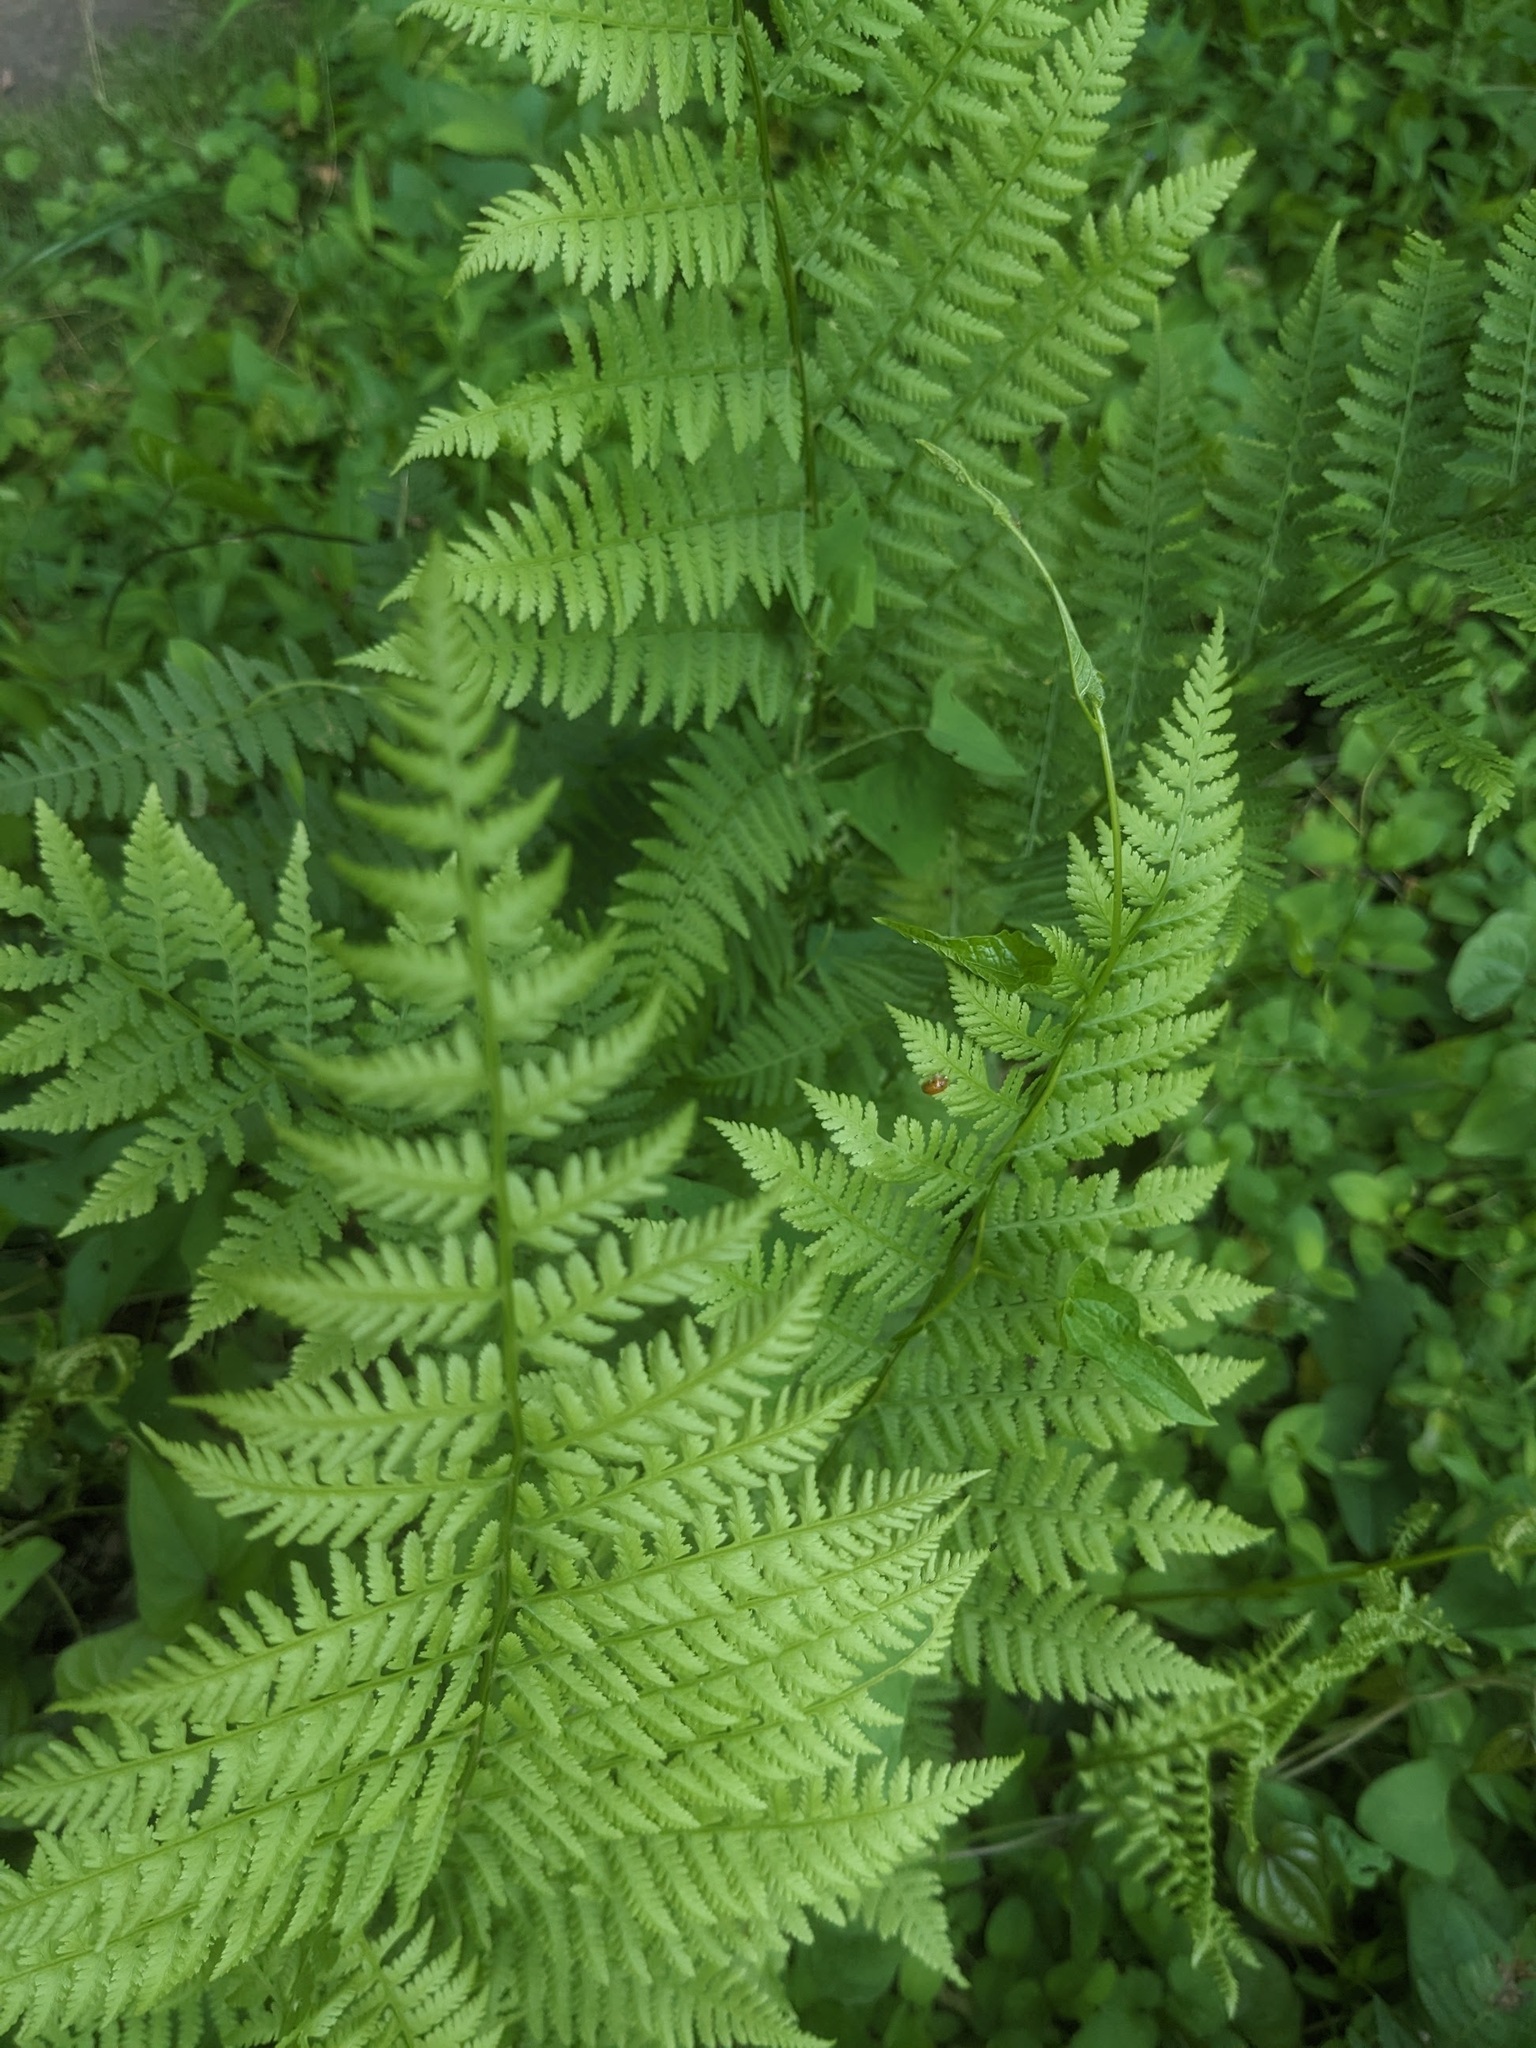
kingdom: Plantae
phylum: Tracheophyta
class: Polypodiopsida
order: Polypodiales
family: Athyriaceae
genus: Athyrium
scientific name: Athyrium asplenioides
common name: Southern lady fern
